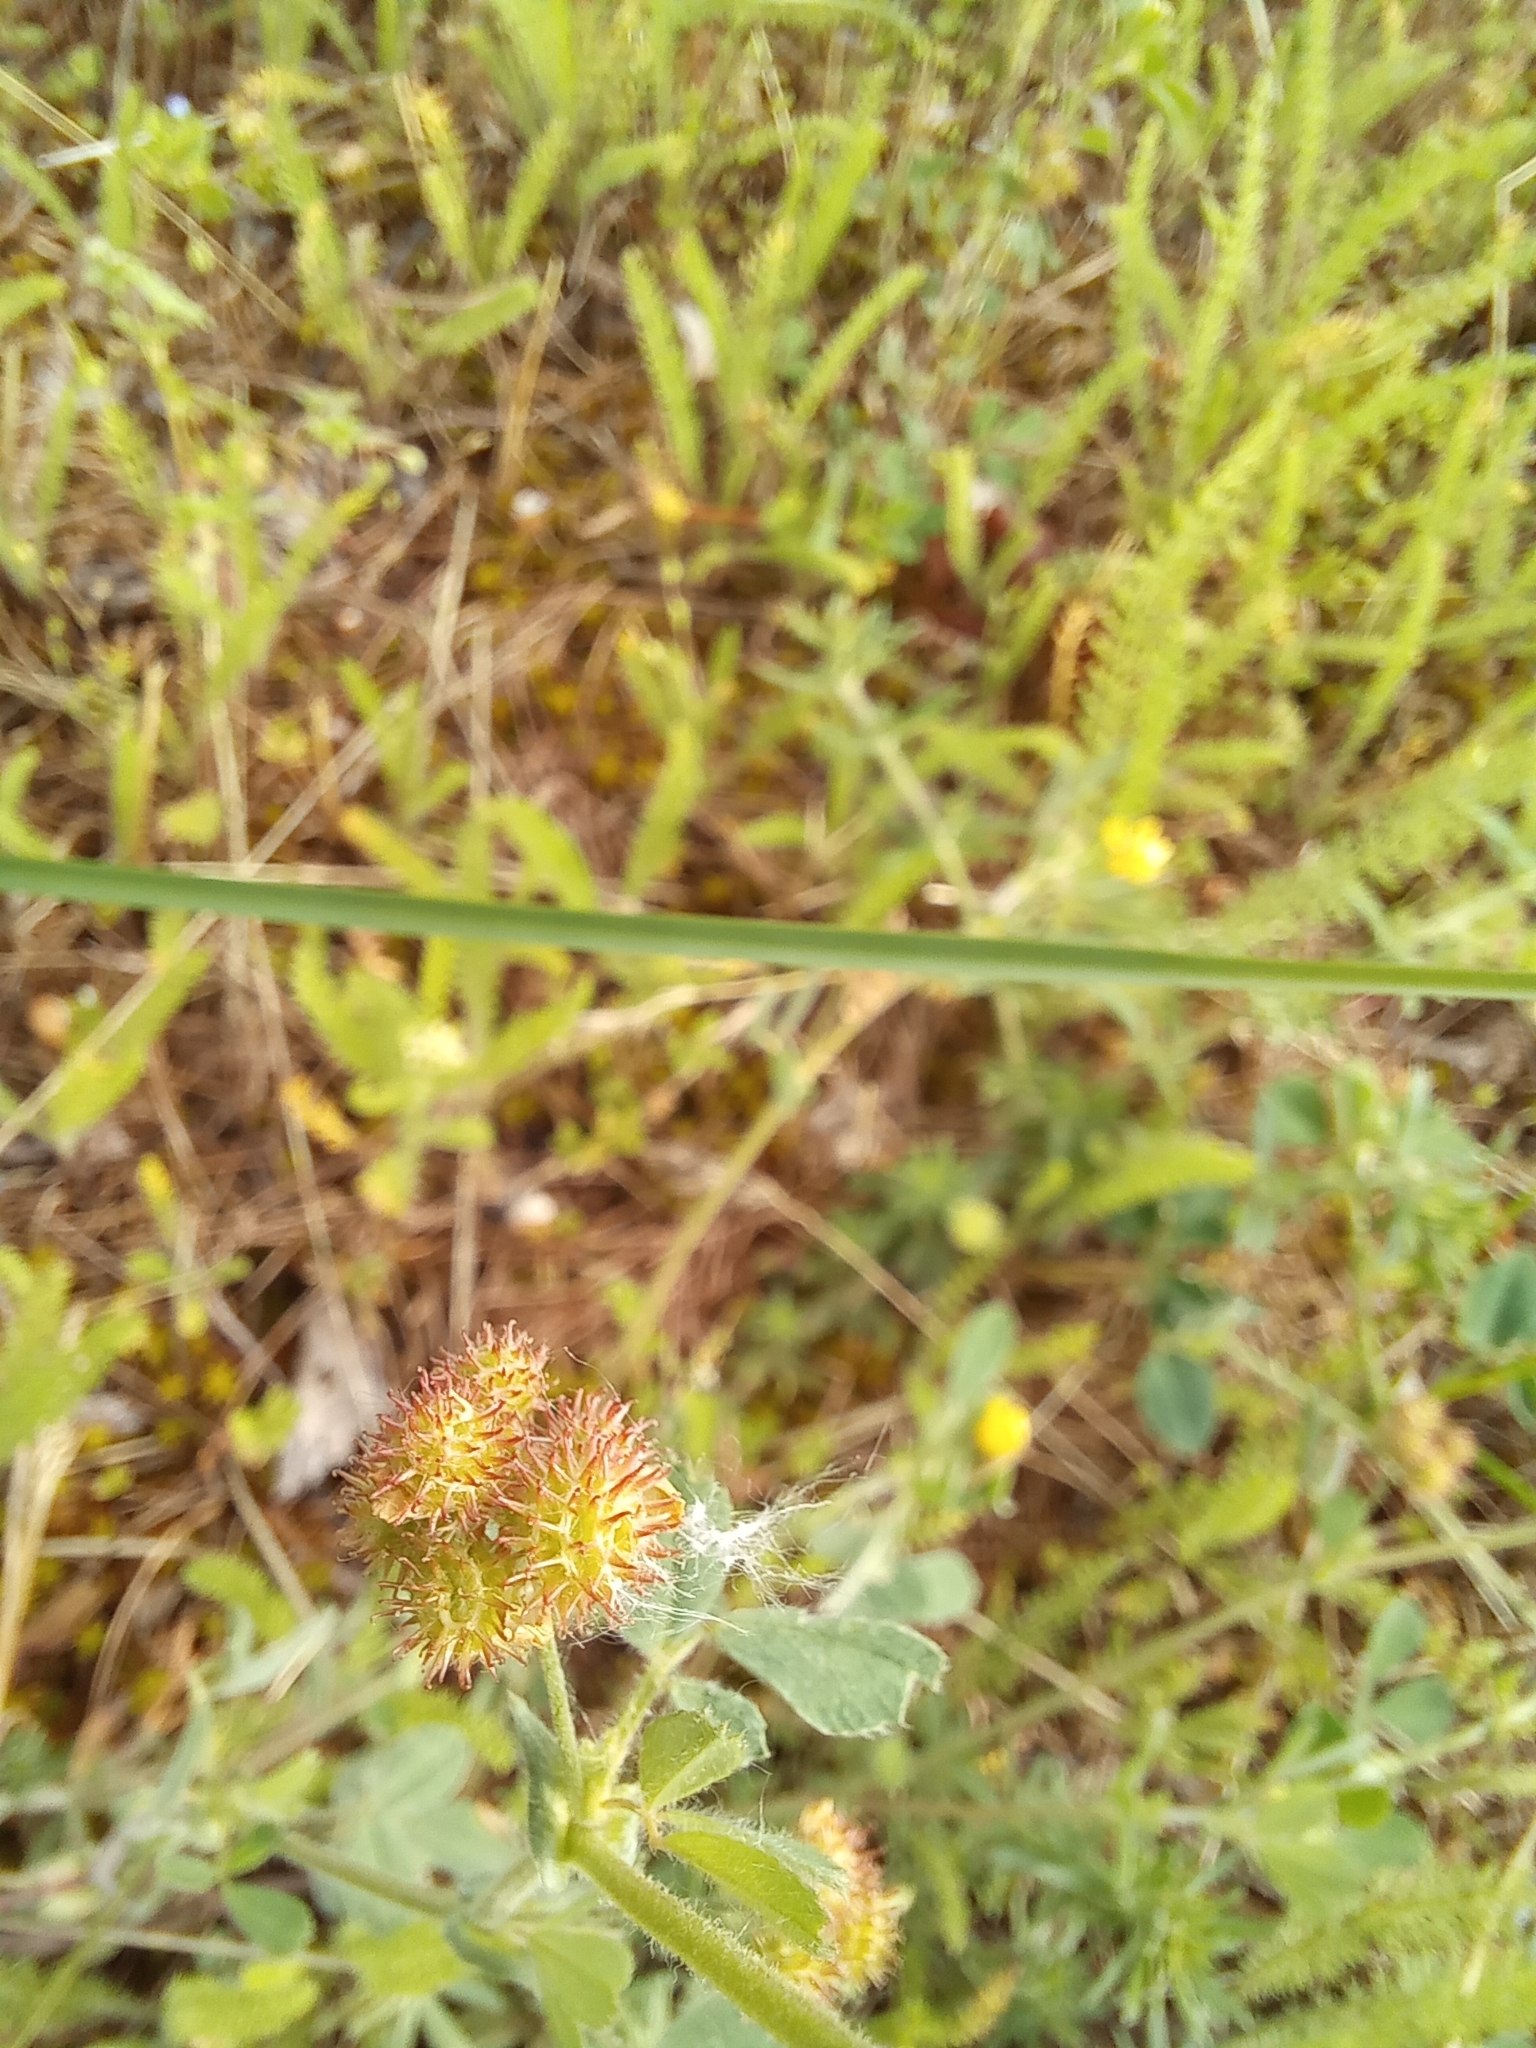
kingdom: Plantae
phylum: Tracheophyta
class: Magnoliopsida
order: Fabales
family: Fabaceae
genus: Medicago
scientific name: Medicago minima
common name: Little bur-clover
